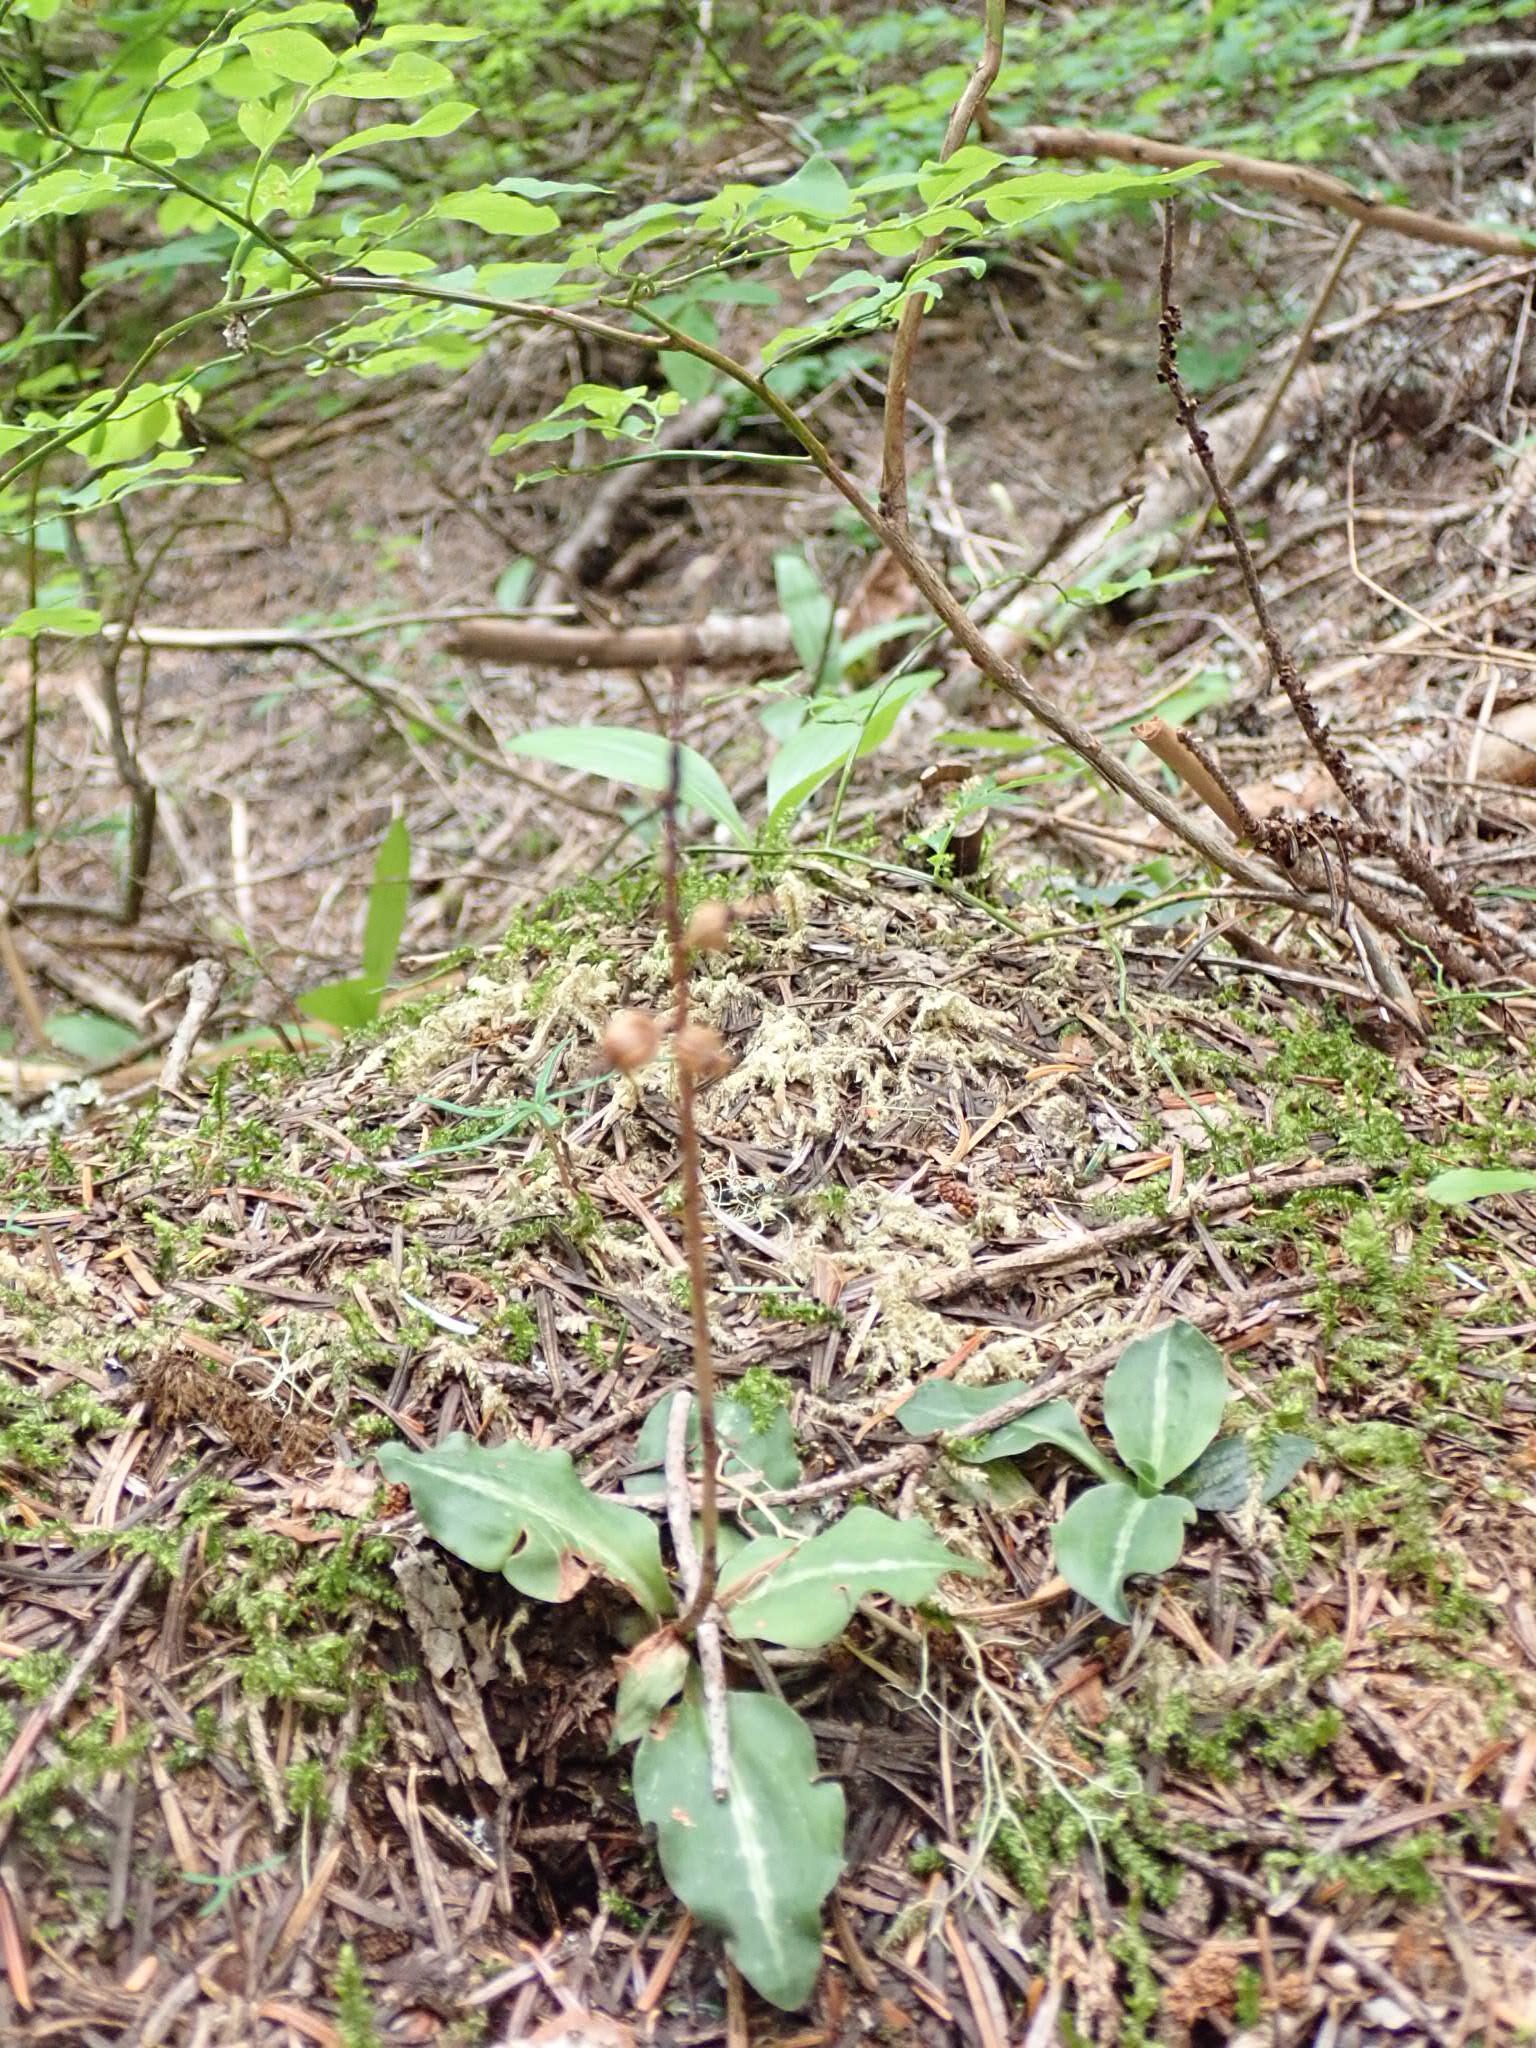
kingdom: Plantae
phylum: Tracheophyta
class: Liliopsida
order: Asparagales
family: Orchidaceae
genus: Goodyera
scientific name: Goodyera oblongifolia
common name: Giant rattlesnake-plantain
